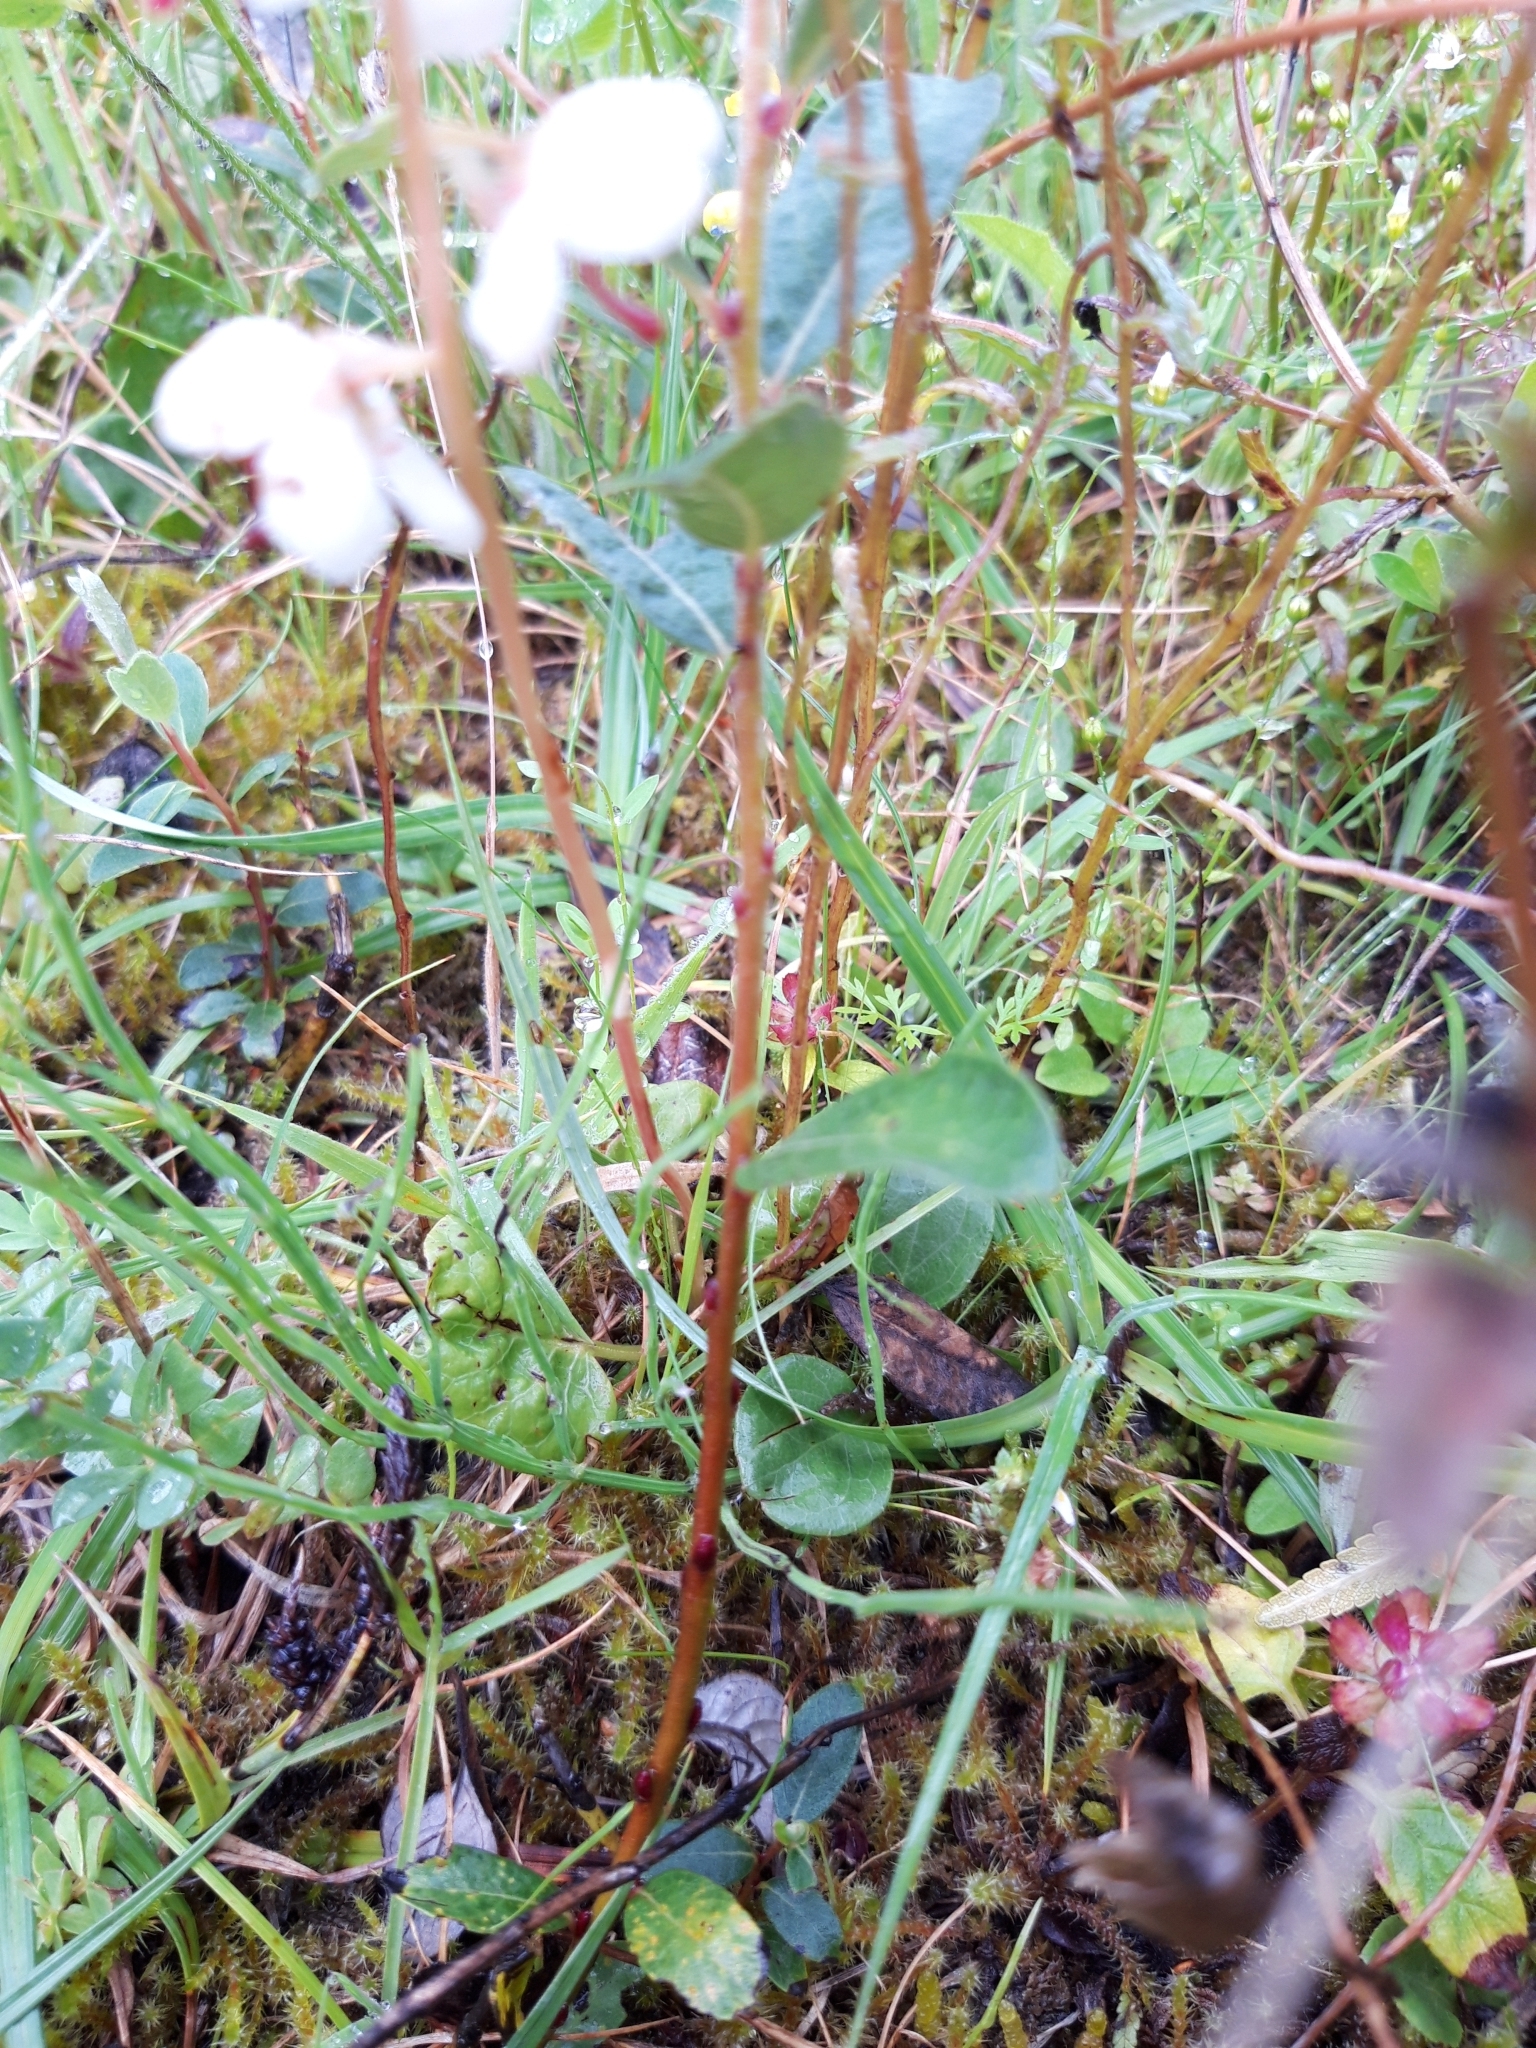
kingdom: Plantae
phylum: Tracheophyta
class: Magnoliopsida
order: Ericales
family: Ericaceae
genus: Pyrola
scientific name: Pyrola rotundifolia
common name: Round-leaved wintergreen
